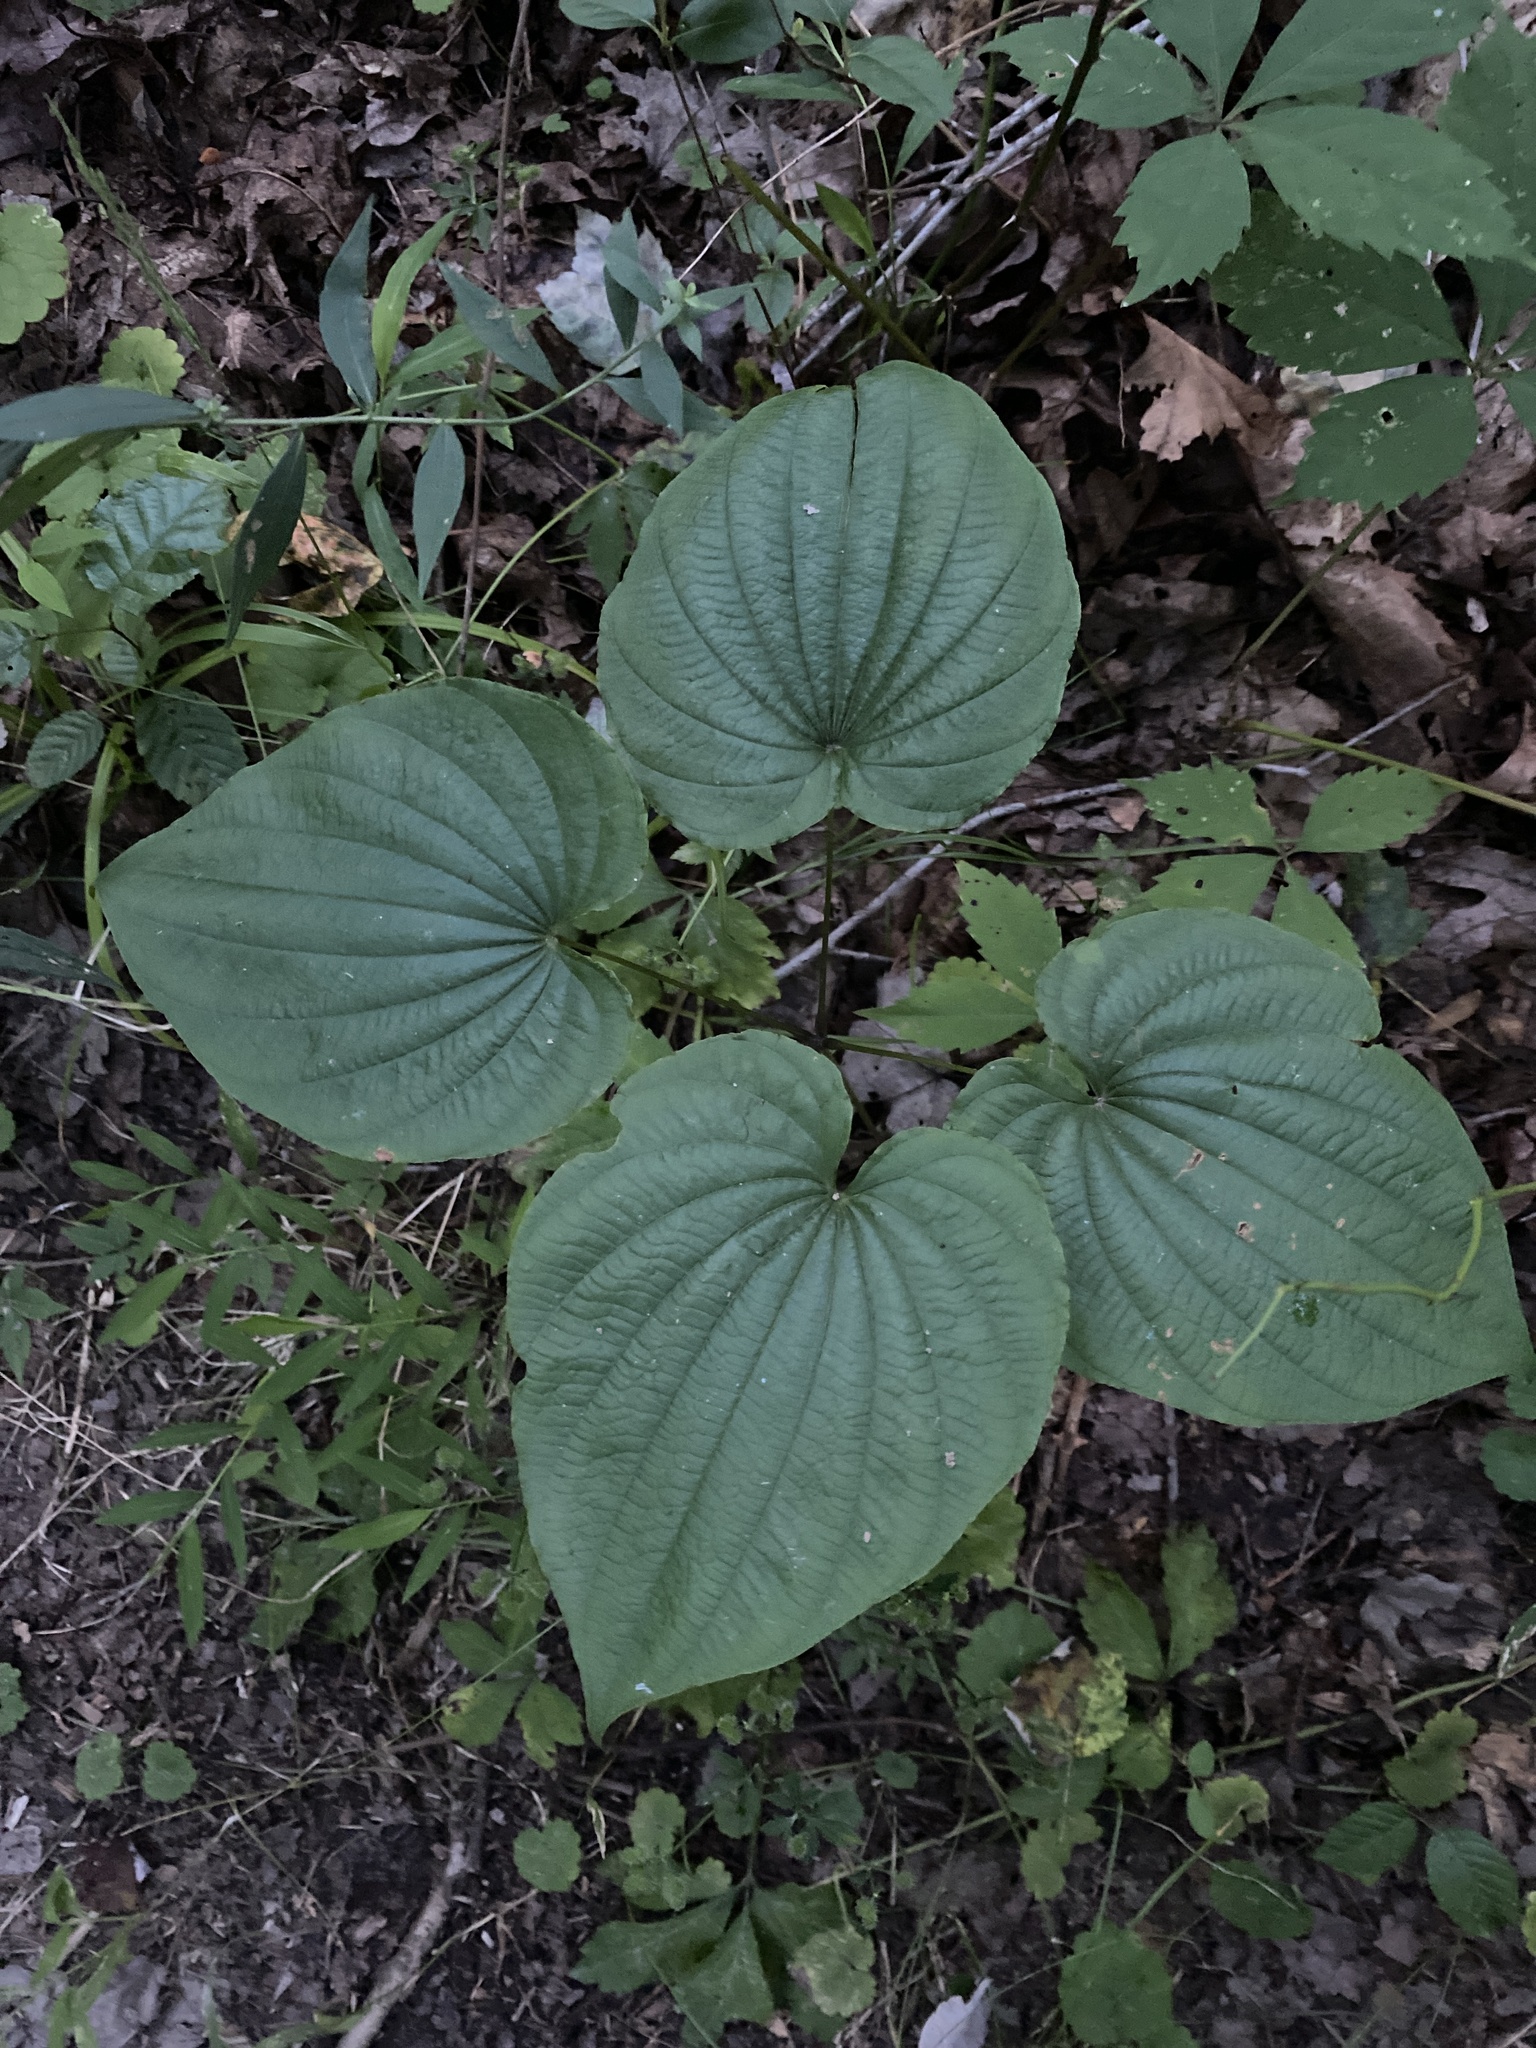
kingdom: Plantae
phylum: Tracheophyta
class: Liliopsida
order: Dioscoreales
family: Dioscoreaceae
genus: Dioscorea
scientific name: Dioscorea villosa
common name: Wild yam
